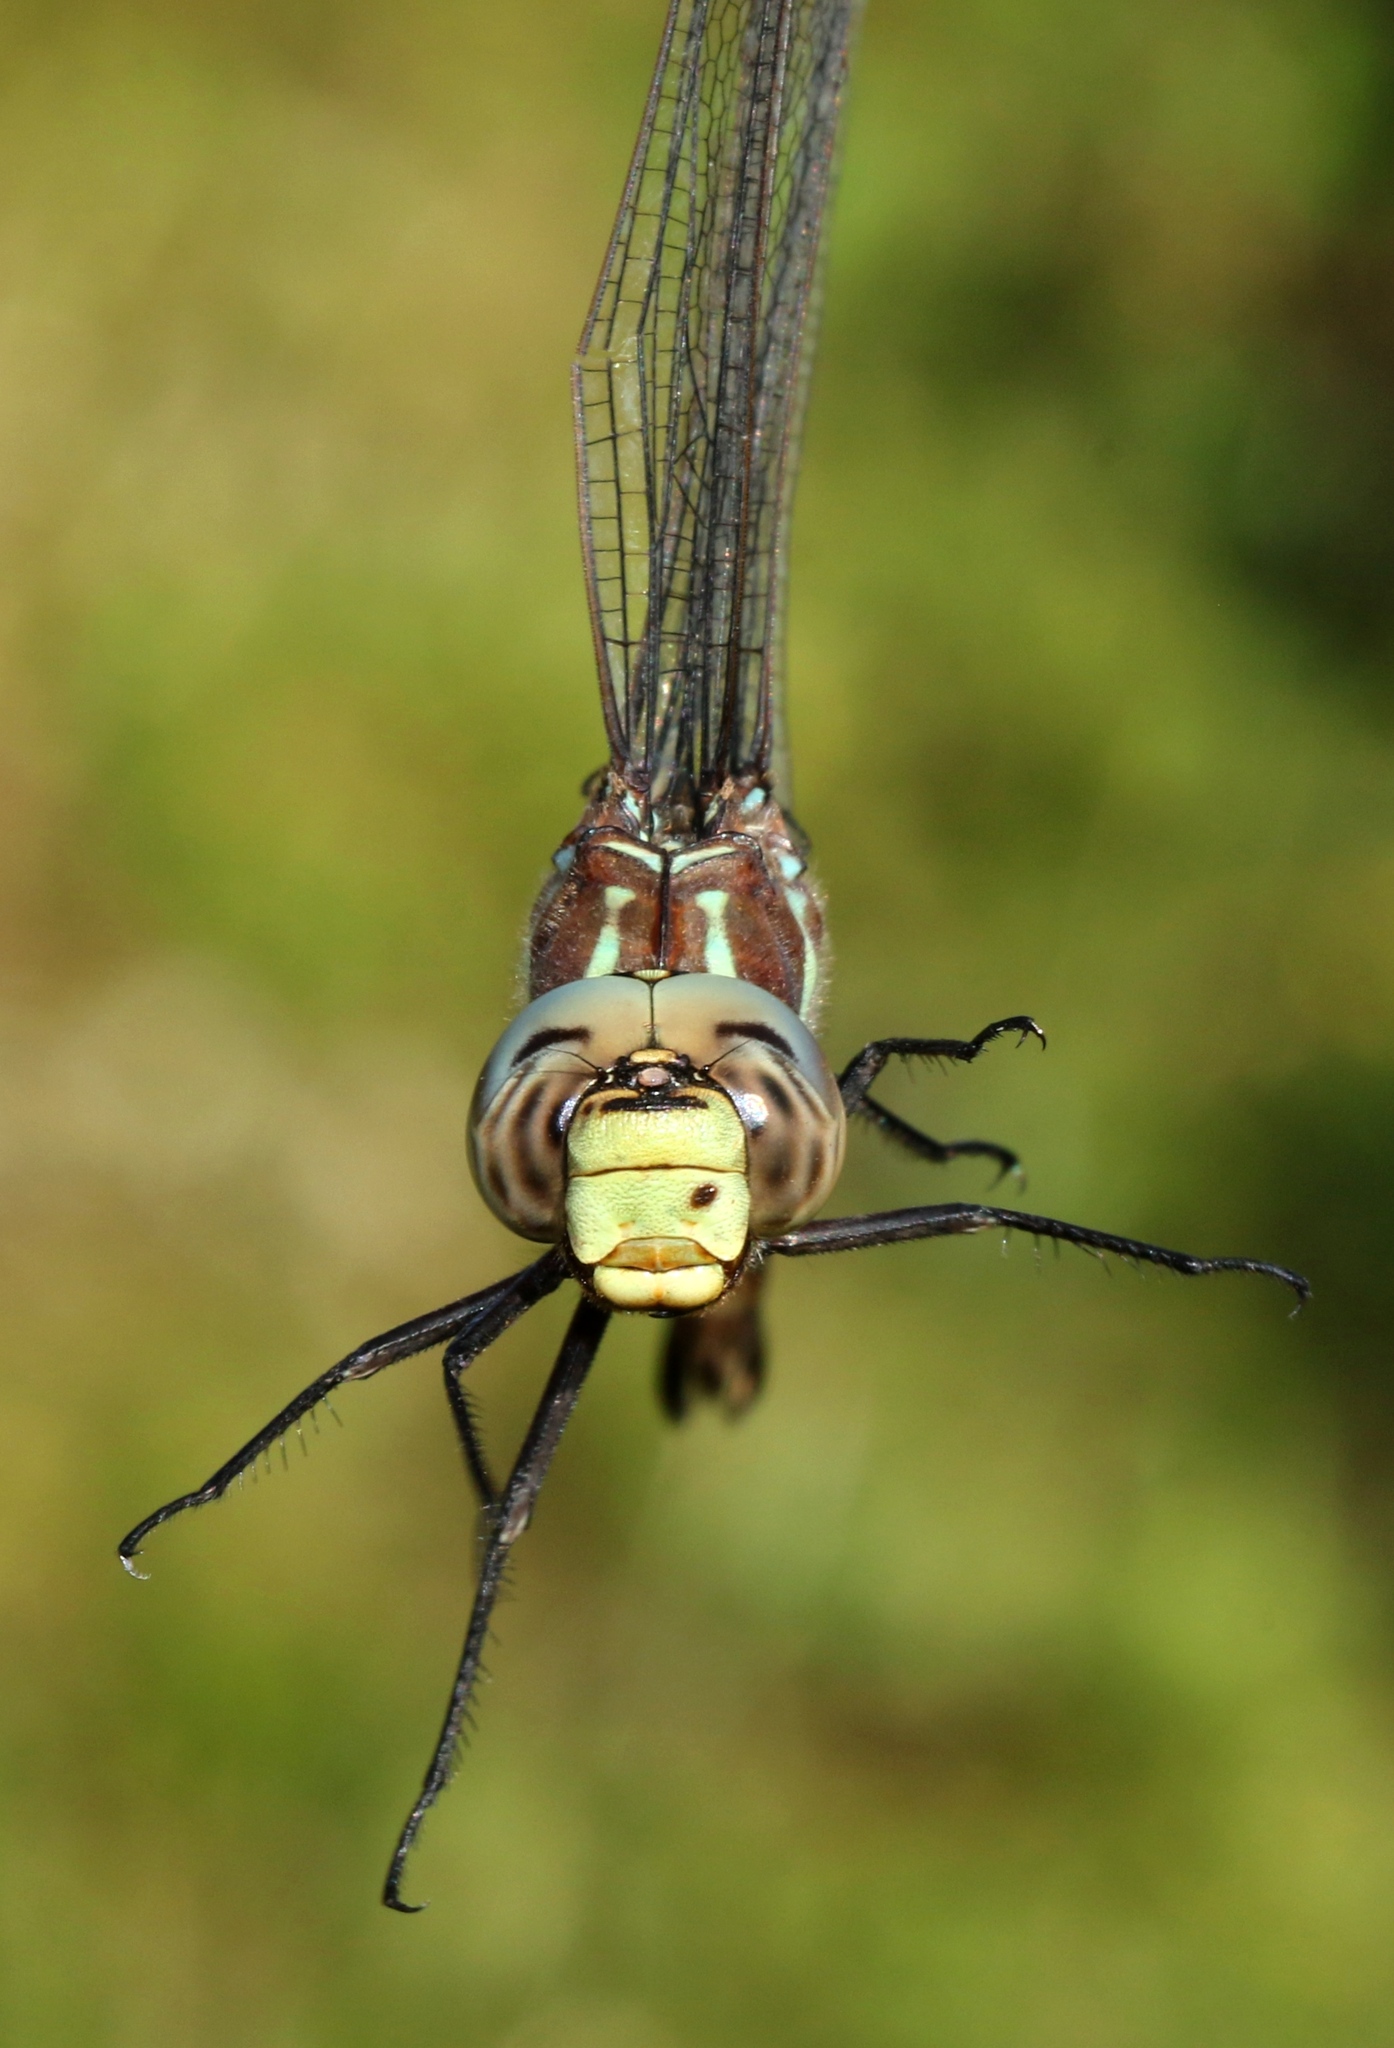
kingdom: Animalia
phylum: Arthropoda
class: Insecta
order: Odonata
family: Aeshnidae
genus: Aeshna
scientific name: Aeshna tuberculifera
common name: Aeschne à tubercules
